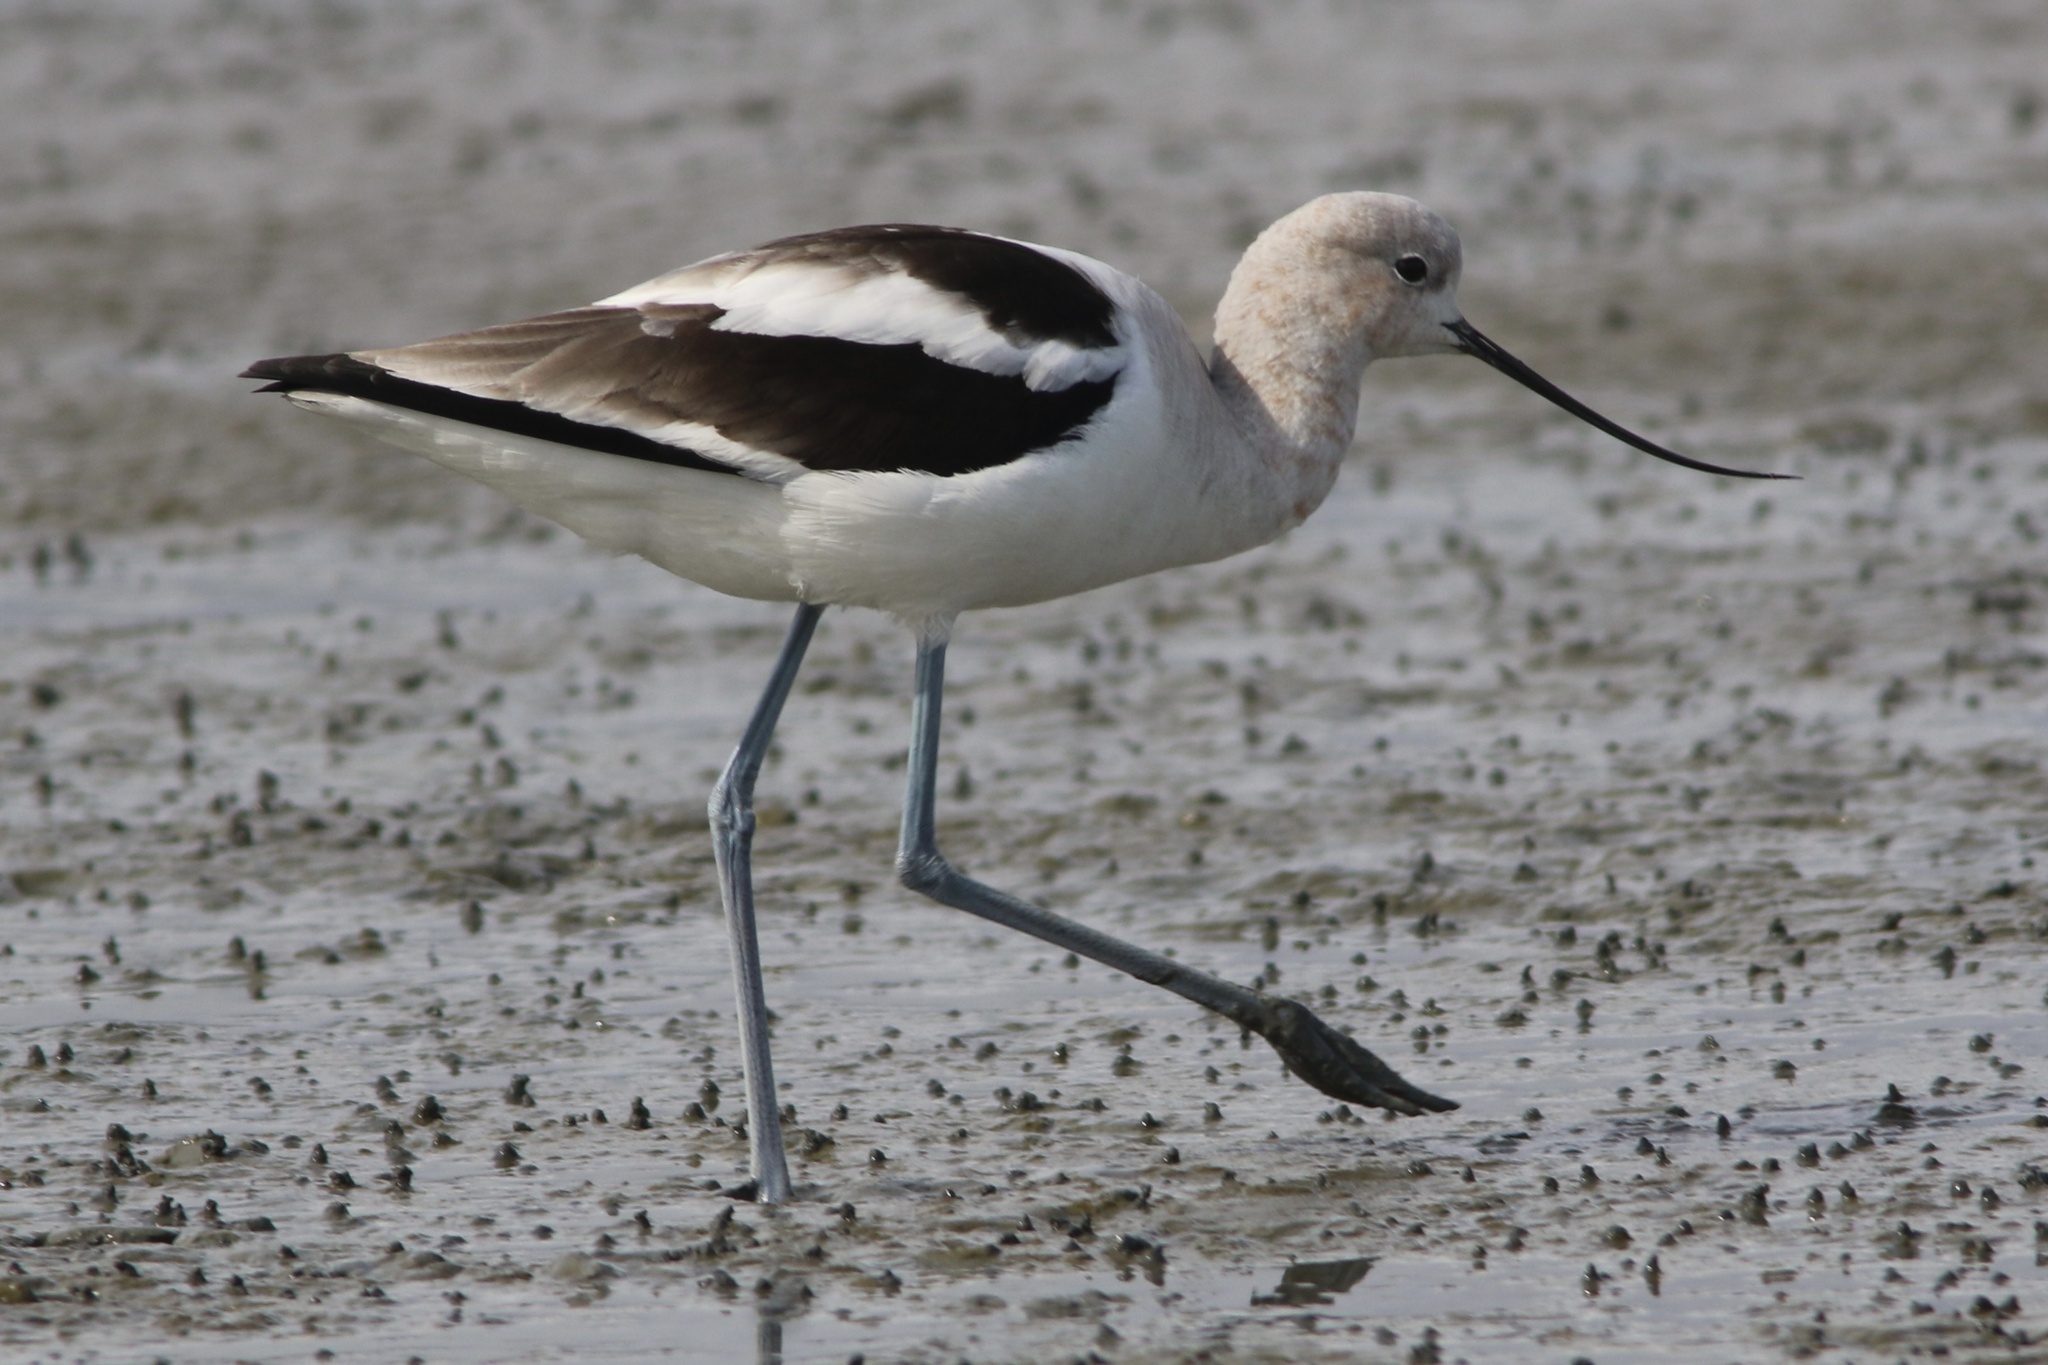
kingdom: Animalia
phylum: Chordata
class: Aves
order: Charadriiformes
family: Recurvirostridae
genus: Recurvirostra
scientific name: Recurvirostra americana
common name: American avocet
